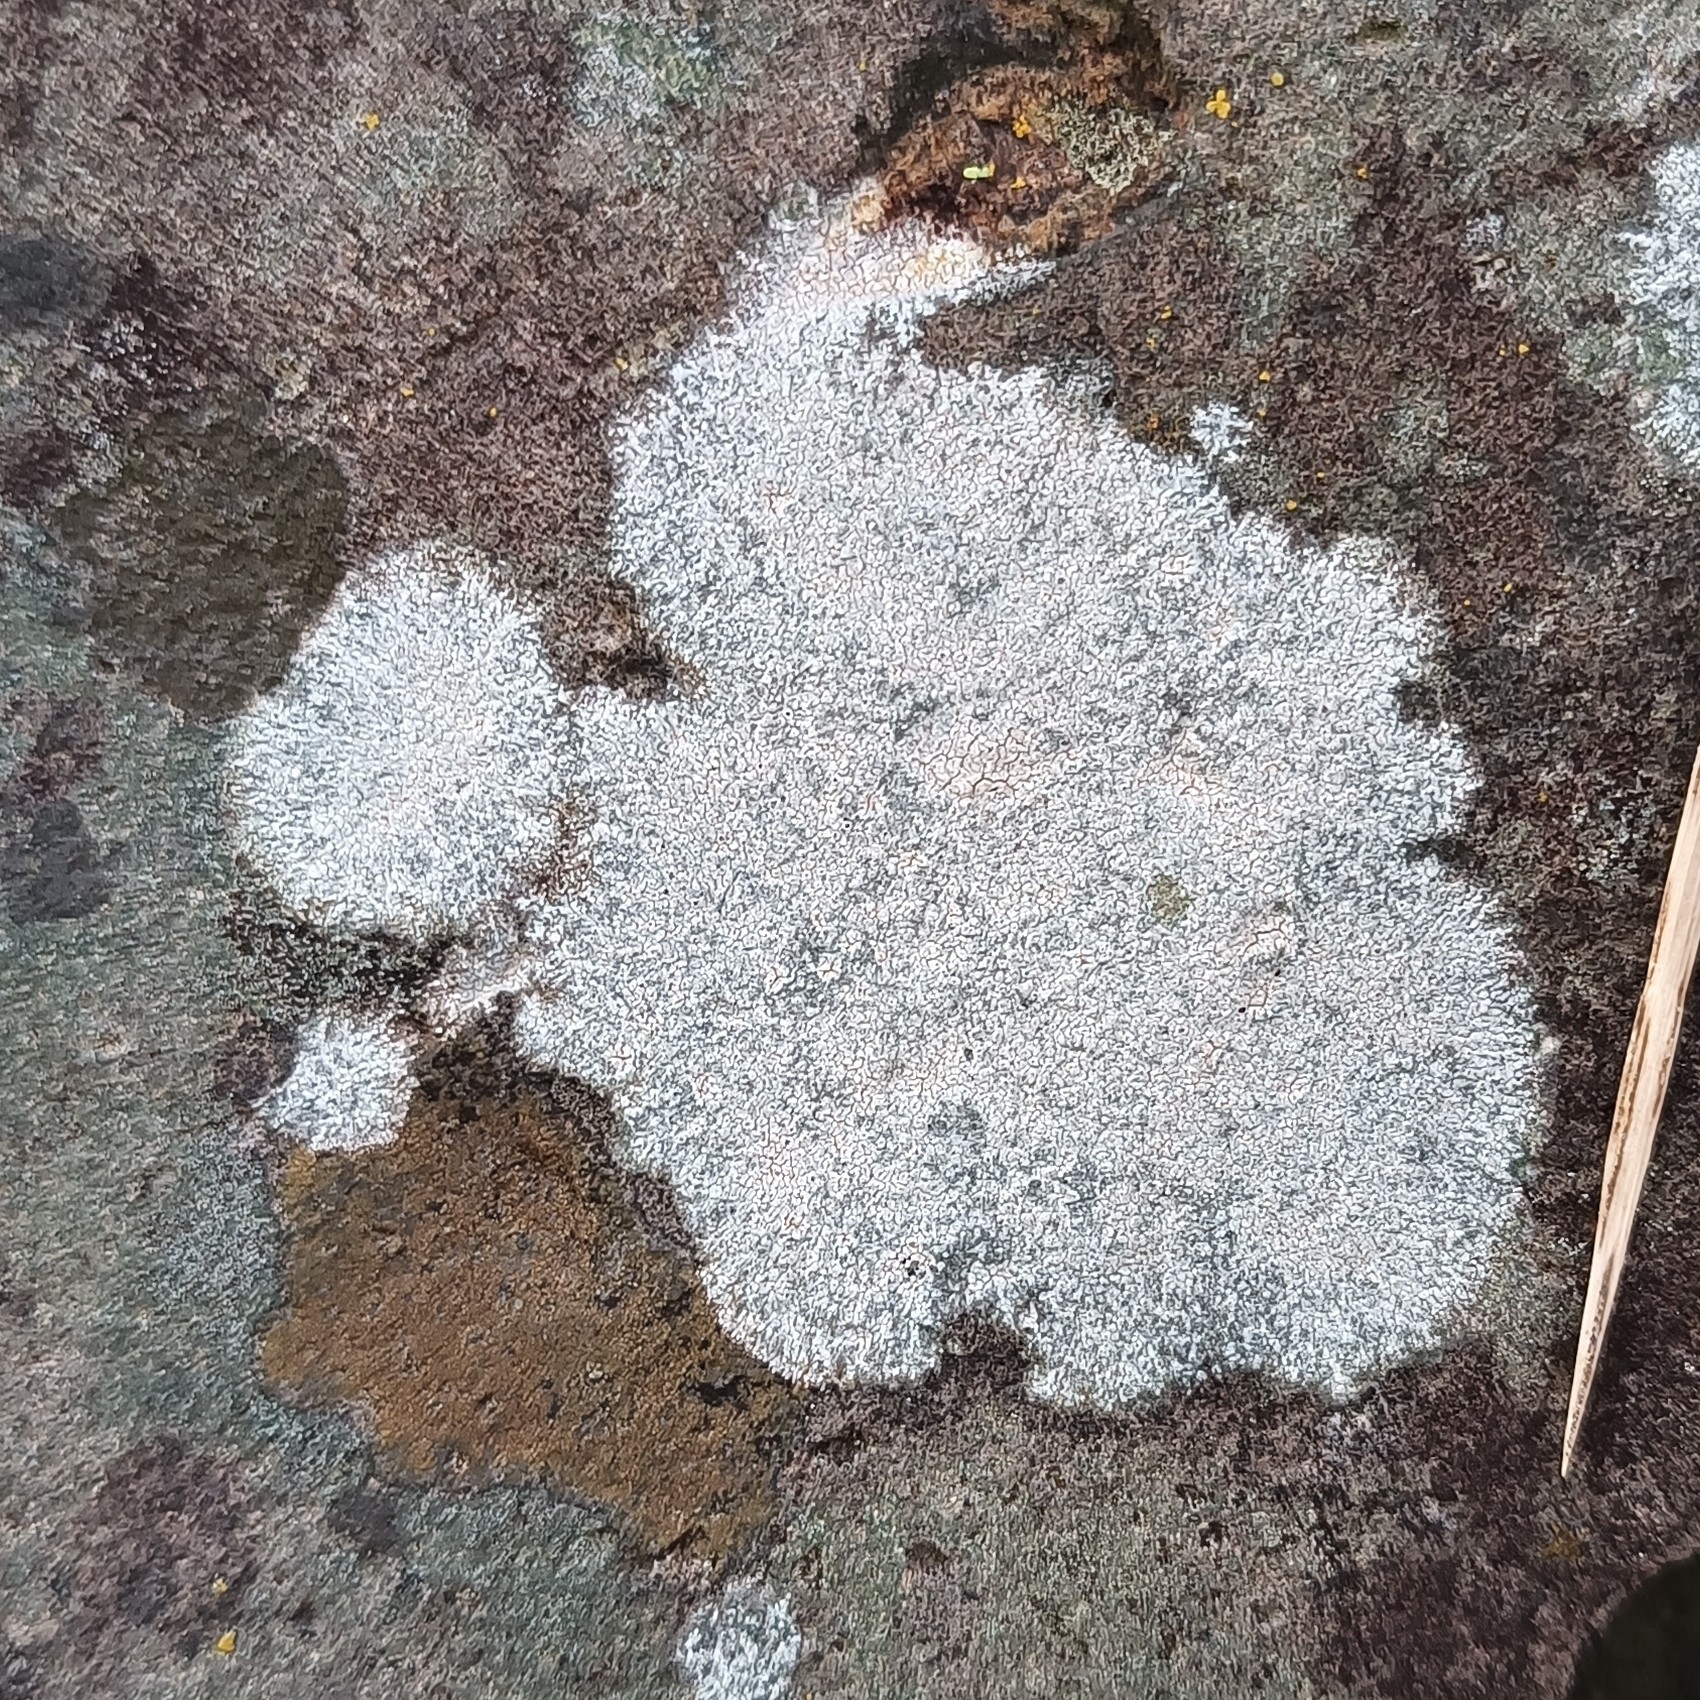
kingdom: Fungi
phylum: Ascomycota
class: Lecanoromycetes
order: Pertusariales
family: Megasporaceae
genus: Aspicilia
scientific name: Aspicilia cinerea
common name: Cinder lichen
